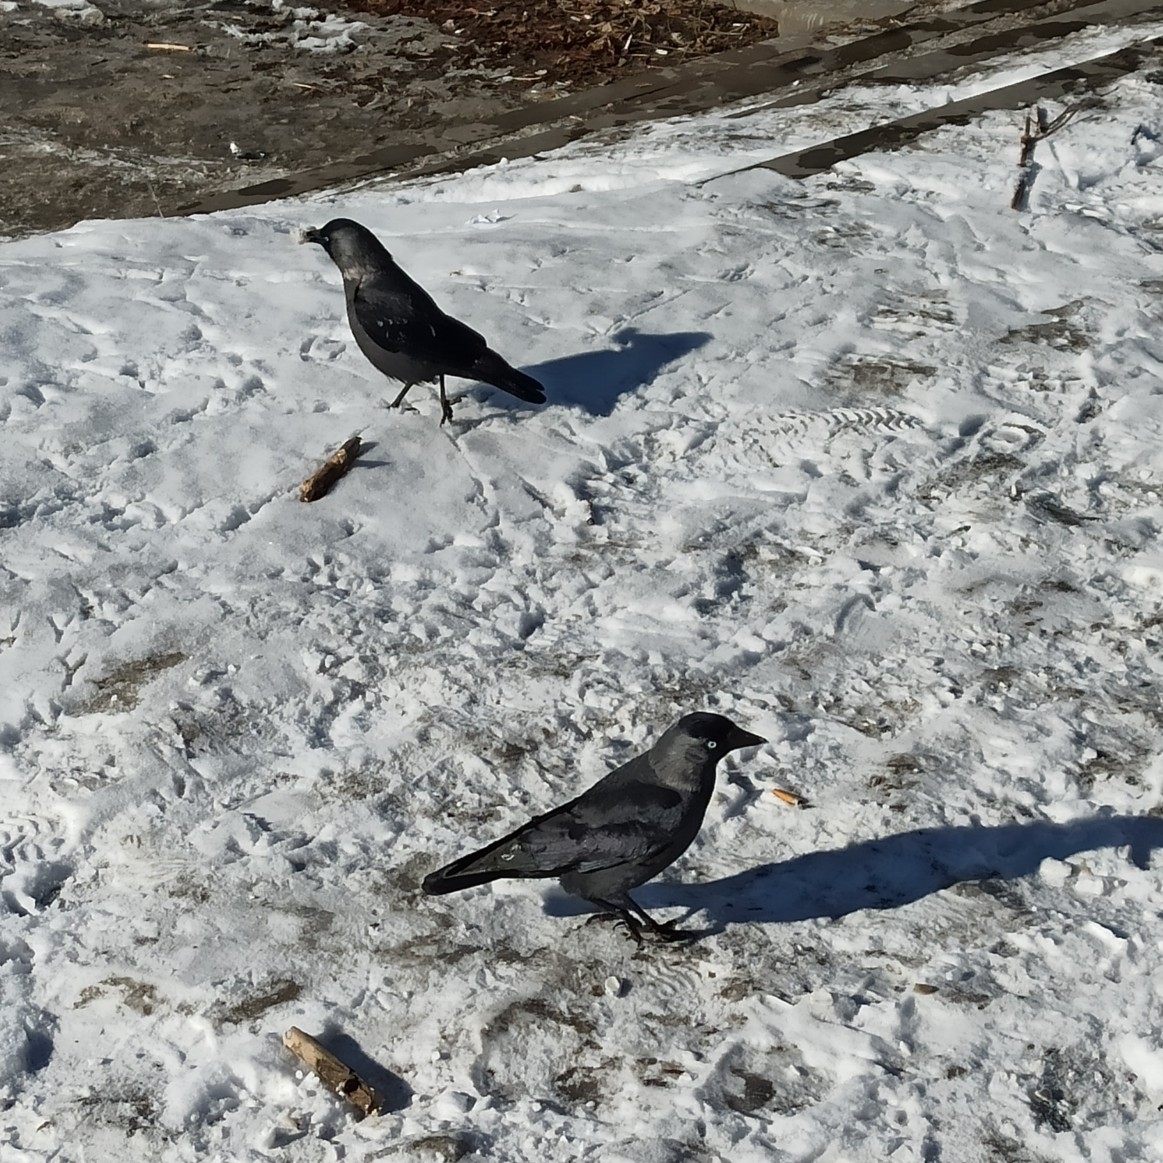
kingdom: Animalia
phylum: Chordata
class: Aves
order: Passeriformes
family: Corvidae
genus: Coloeus
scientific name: Coloeus monedula
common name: Western jackdaw
